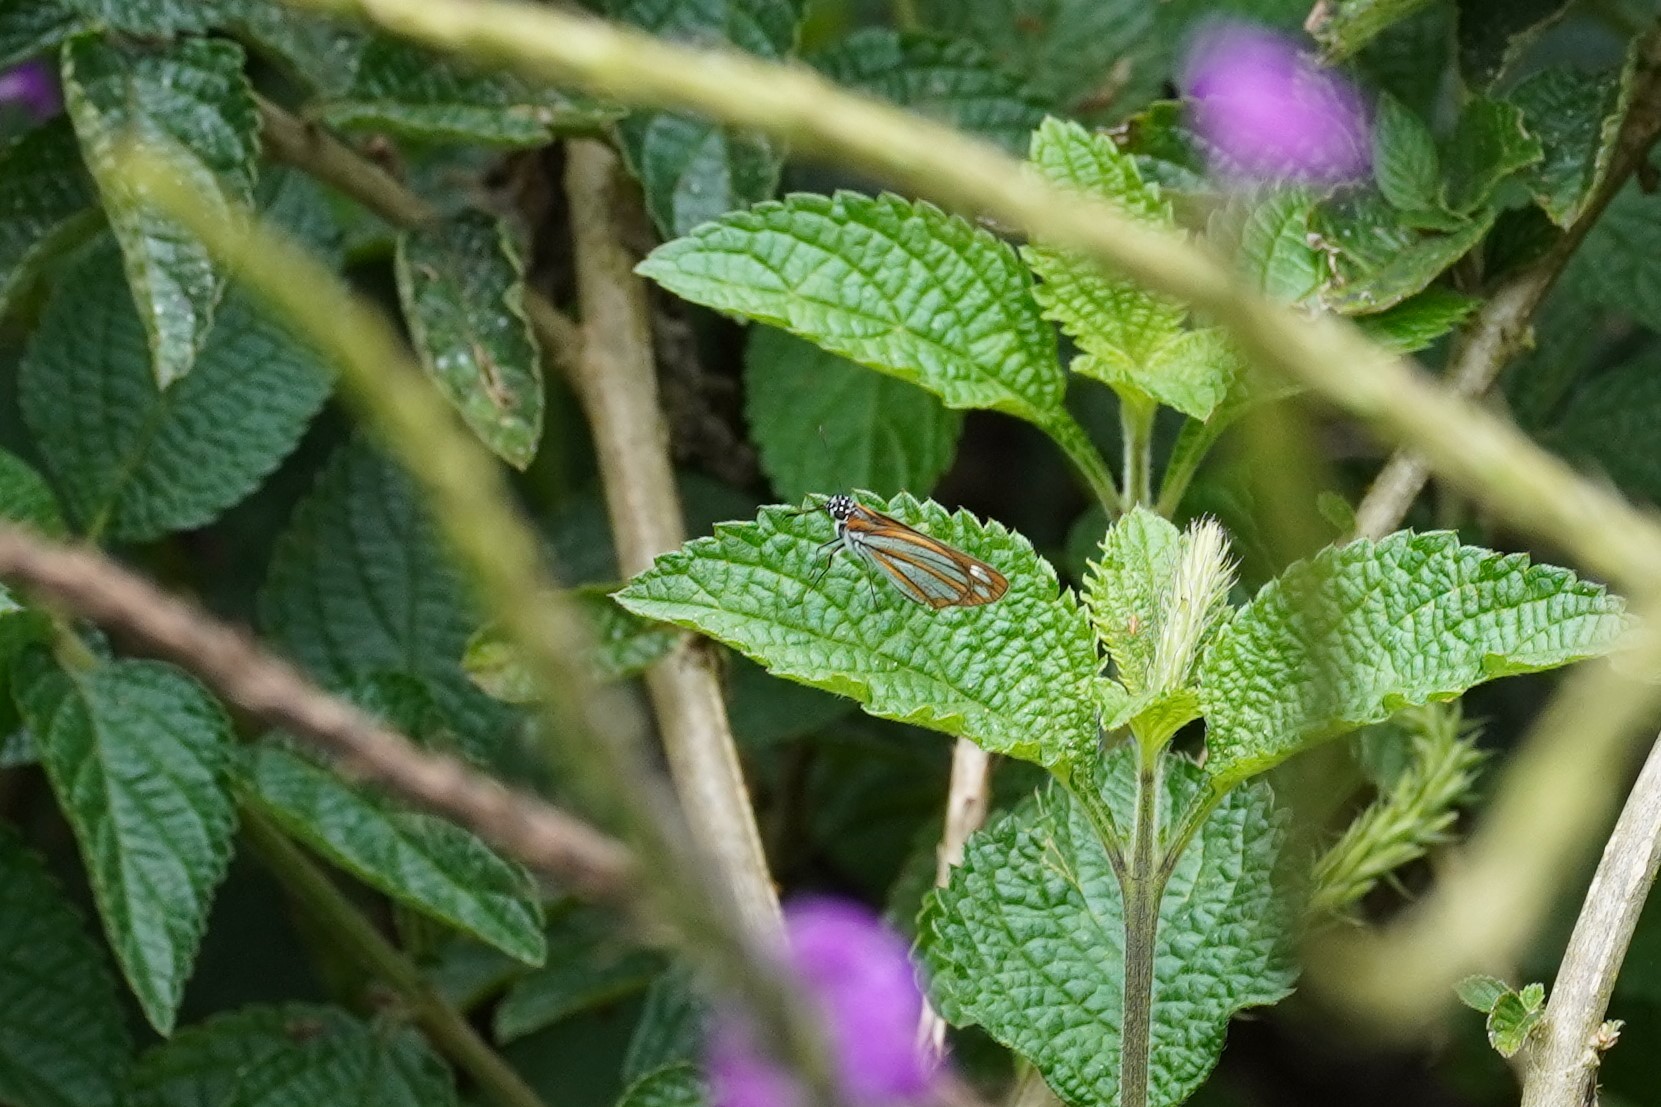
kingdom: Animalia
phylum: Arthropoda
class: Insecta
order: Lepidoptera
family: Hesperiidae
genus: Corra
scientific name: Corra
